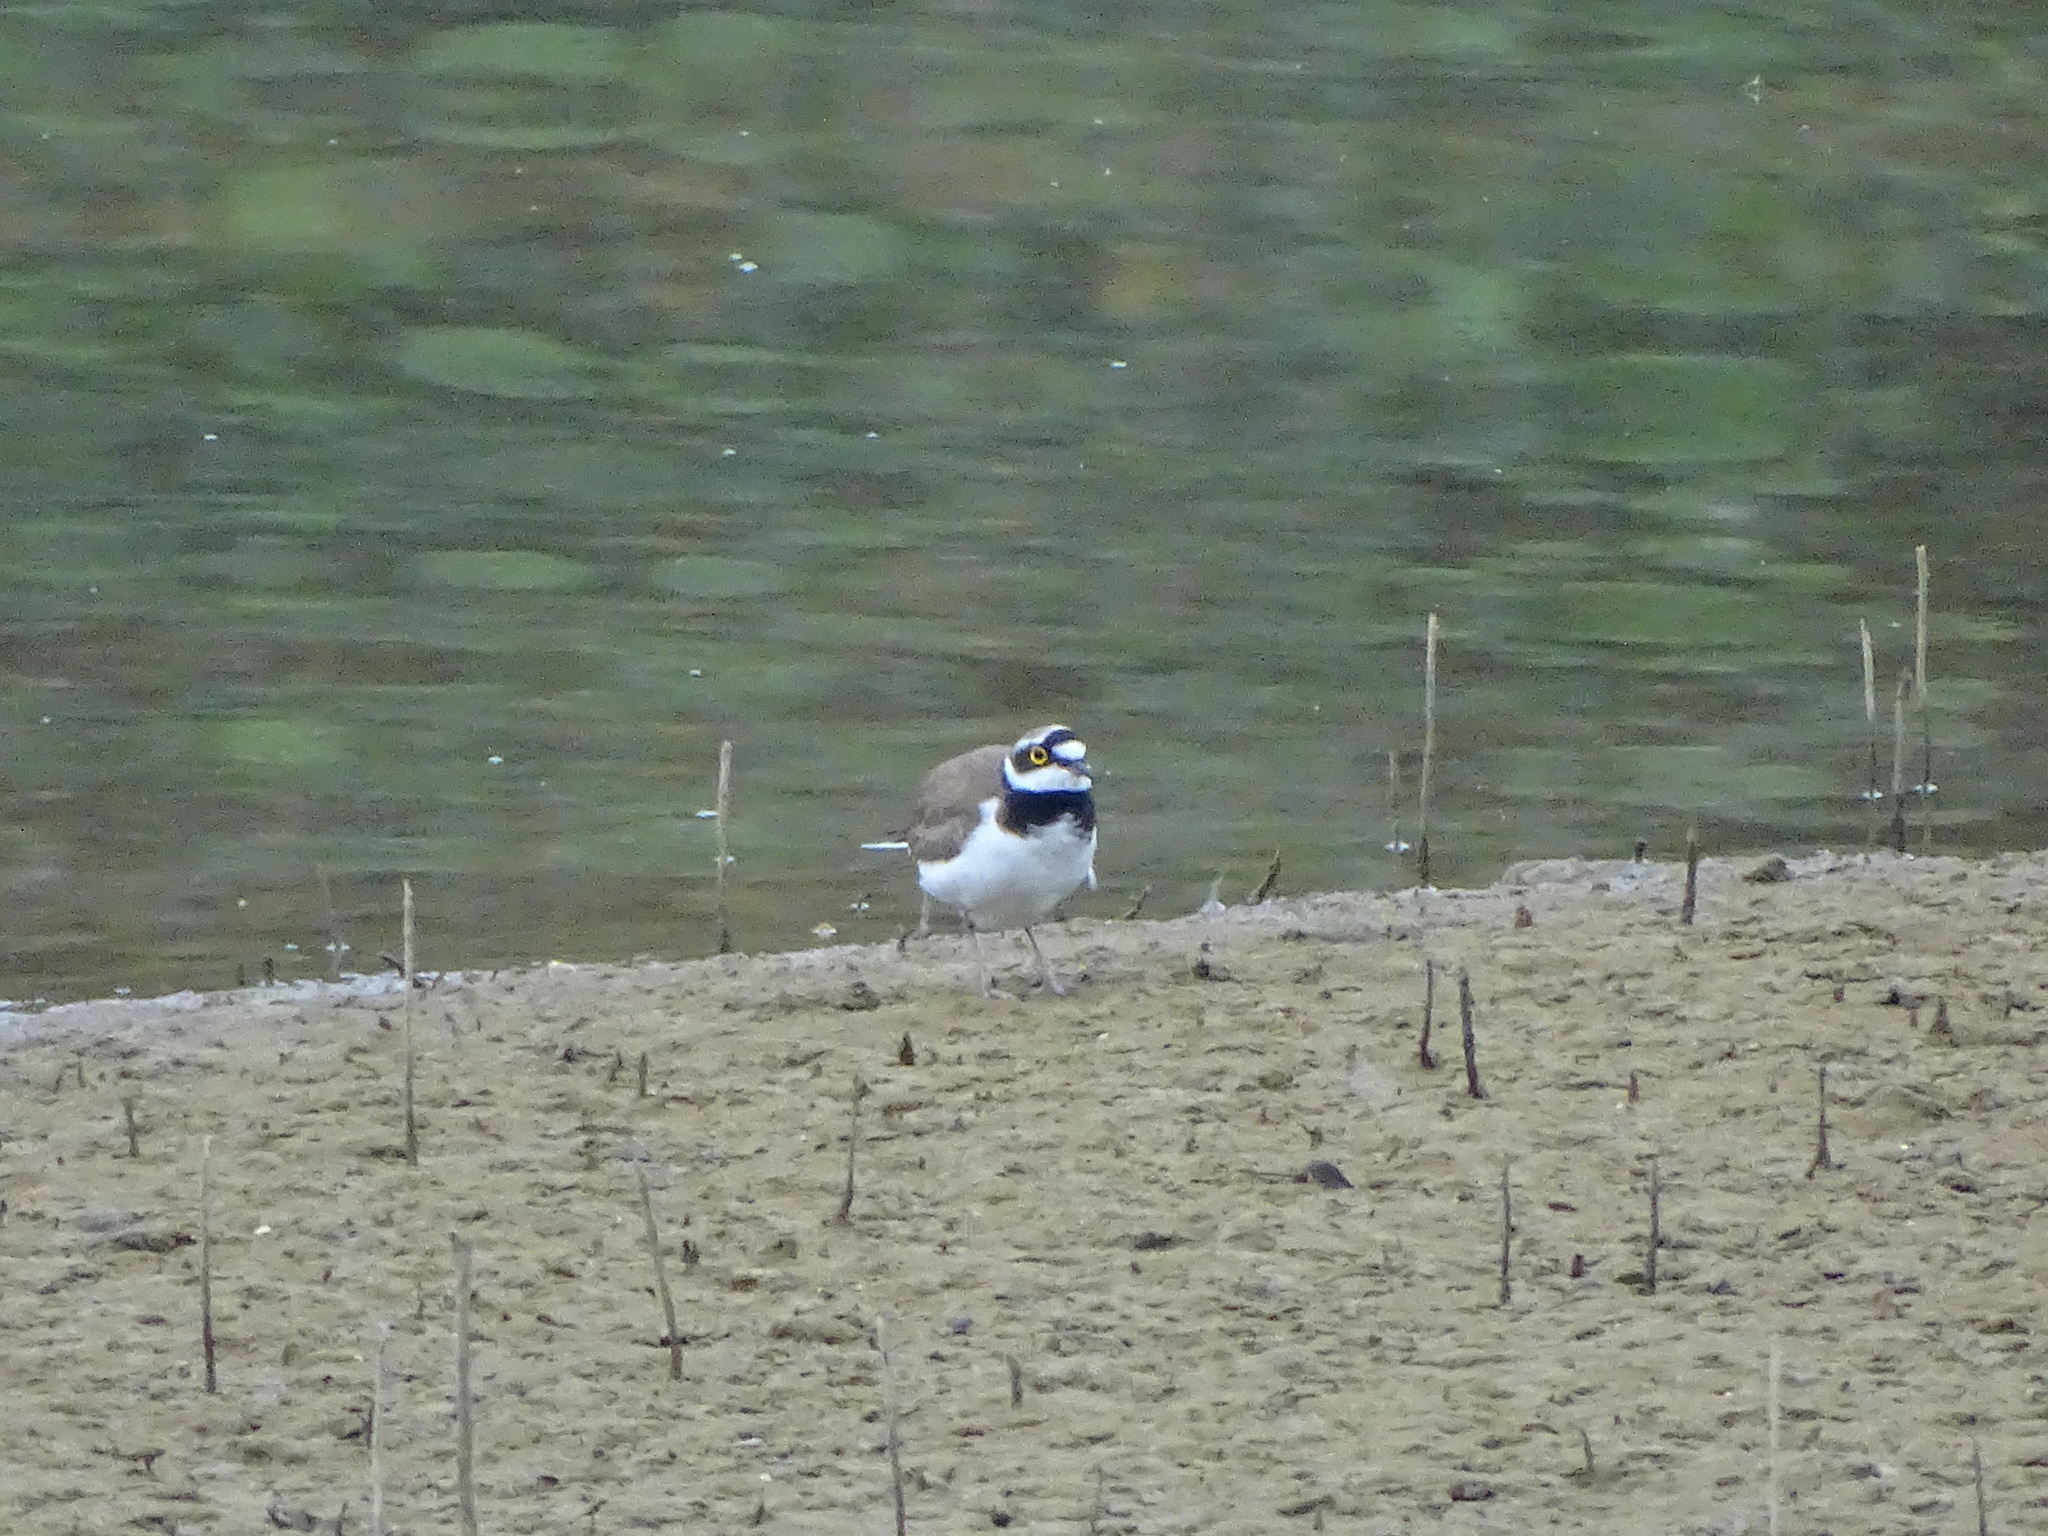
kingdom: Animalia
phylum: Chordata
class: Aves
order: Charadriiformes
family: Charadriidae
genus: Charadrius
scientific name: Charadrius dubius
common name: Little ringed plover
